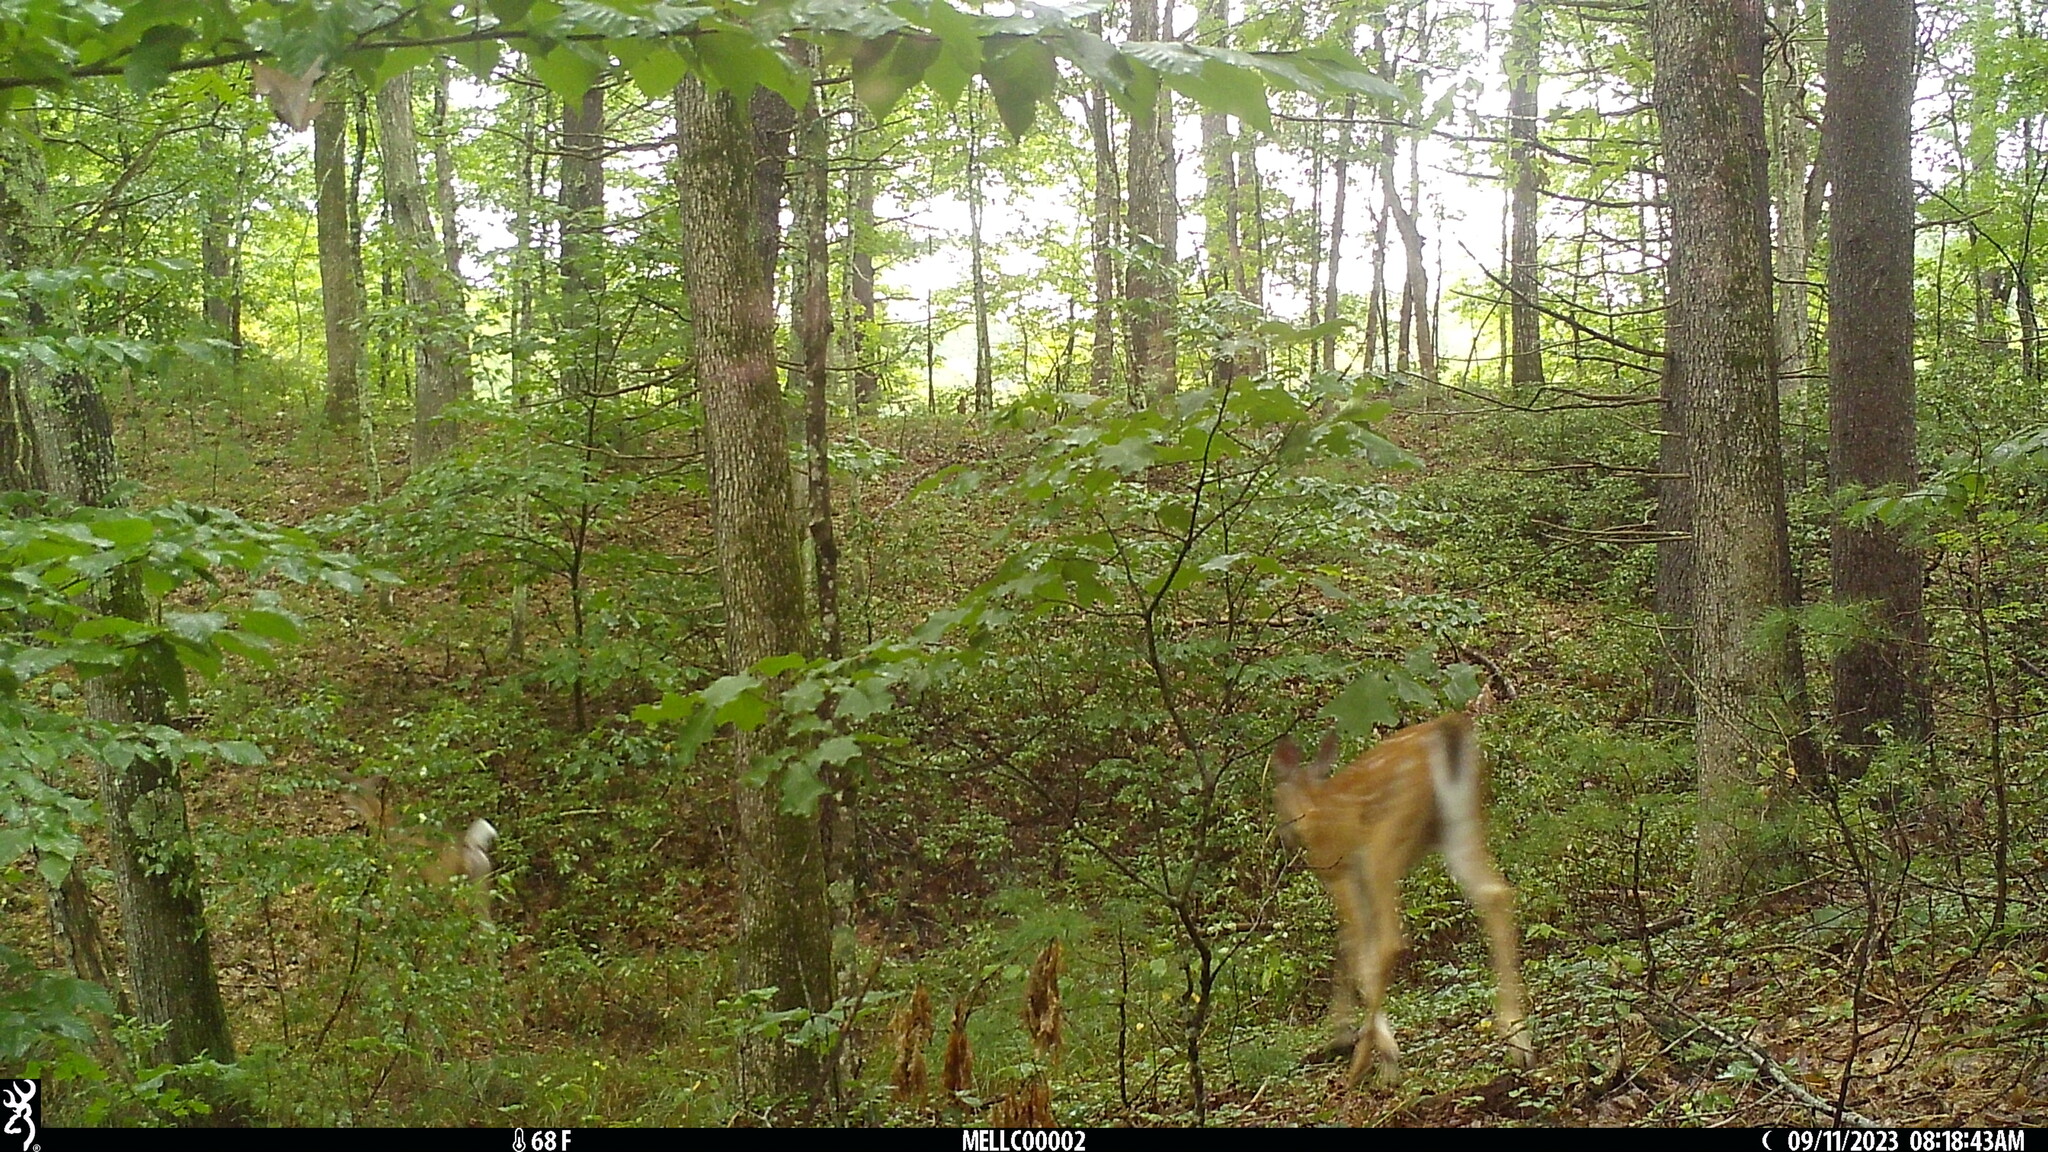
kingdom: Animalia
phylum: Chordata
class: Mammalia
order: Artiodactyla
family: Cervidae
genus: Odocoileus
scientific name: Odocoileus virginianus
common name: White-tailed deer
